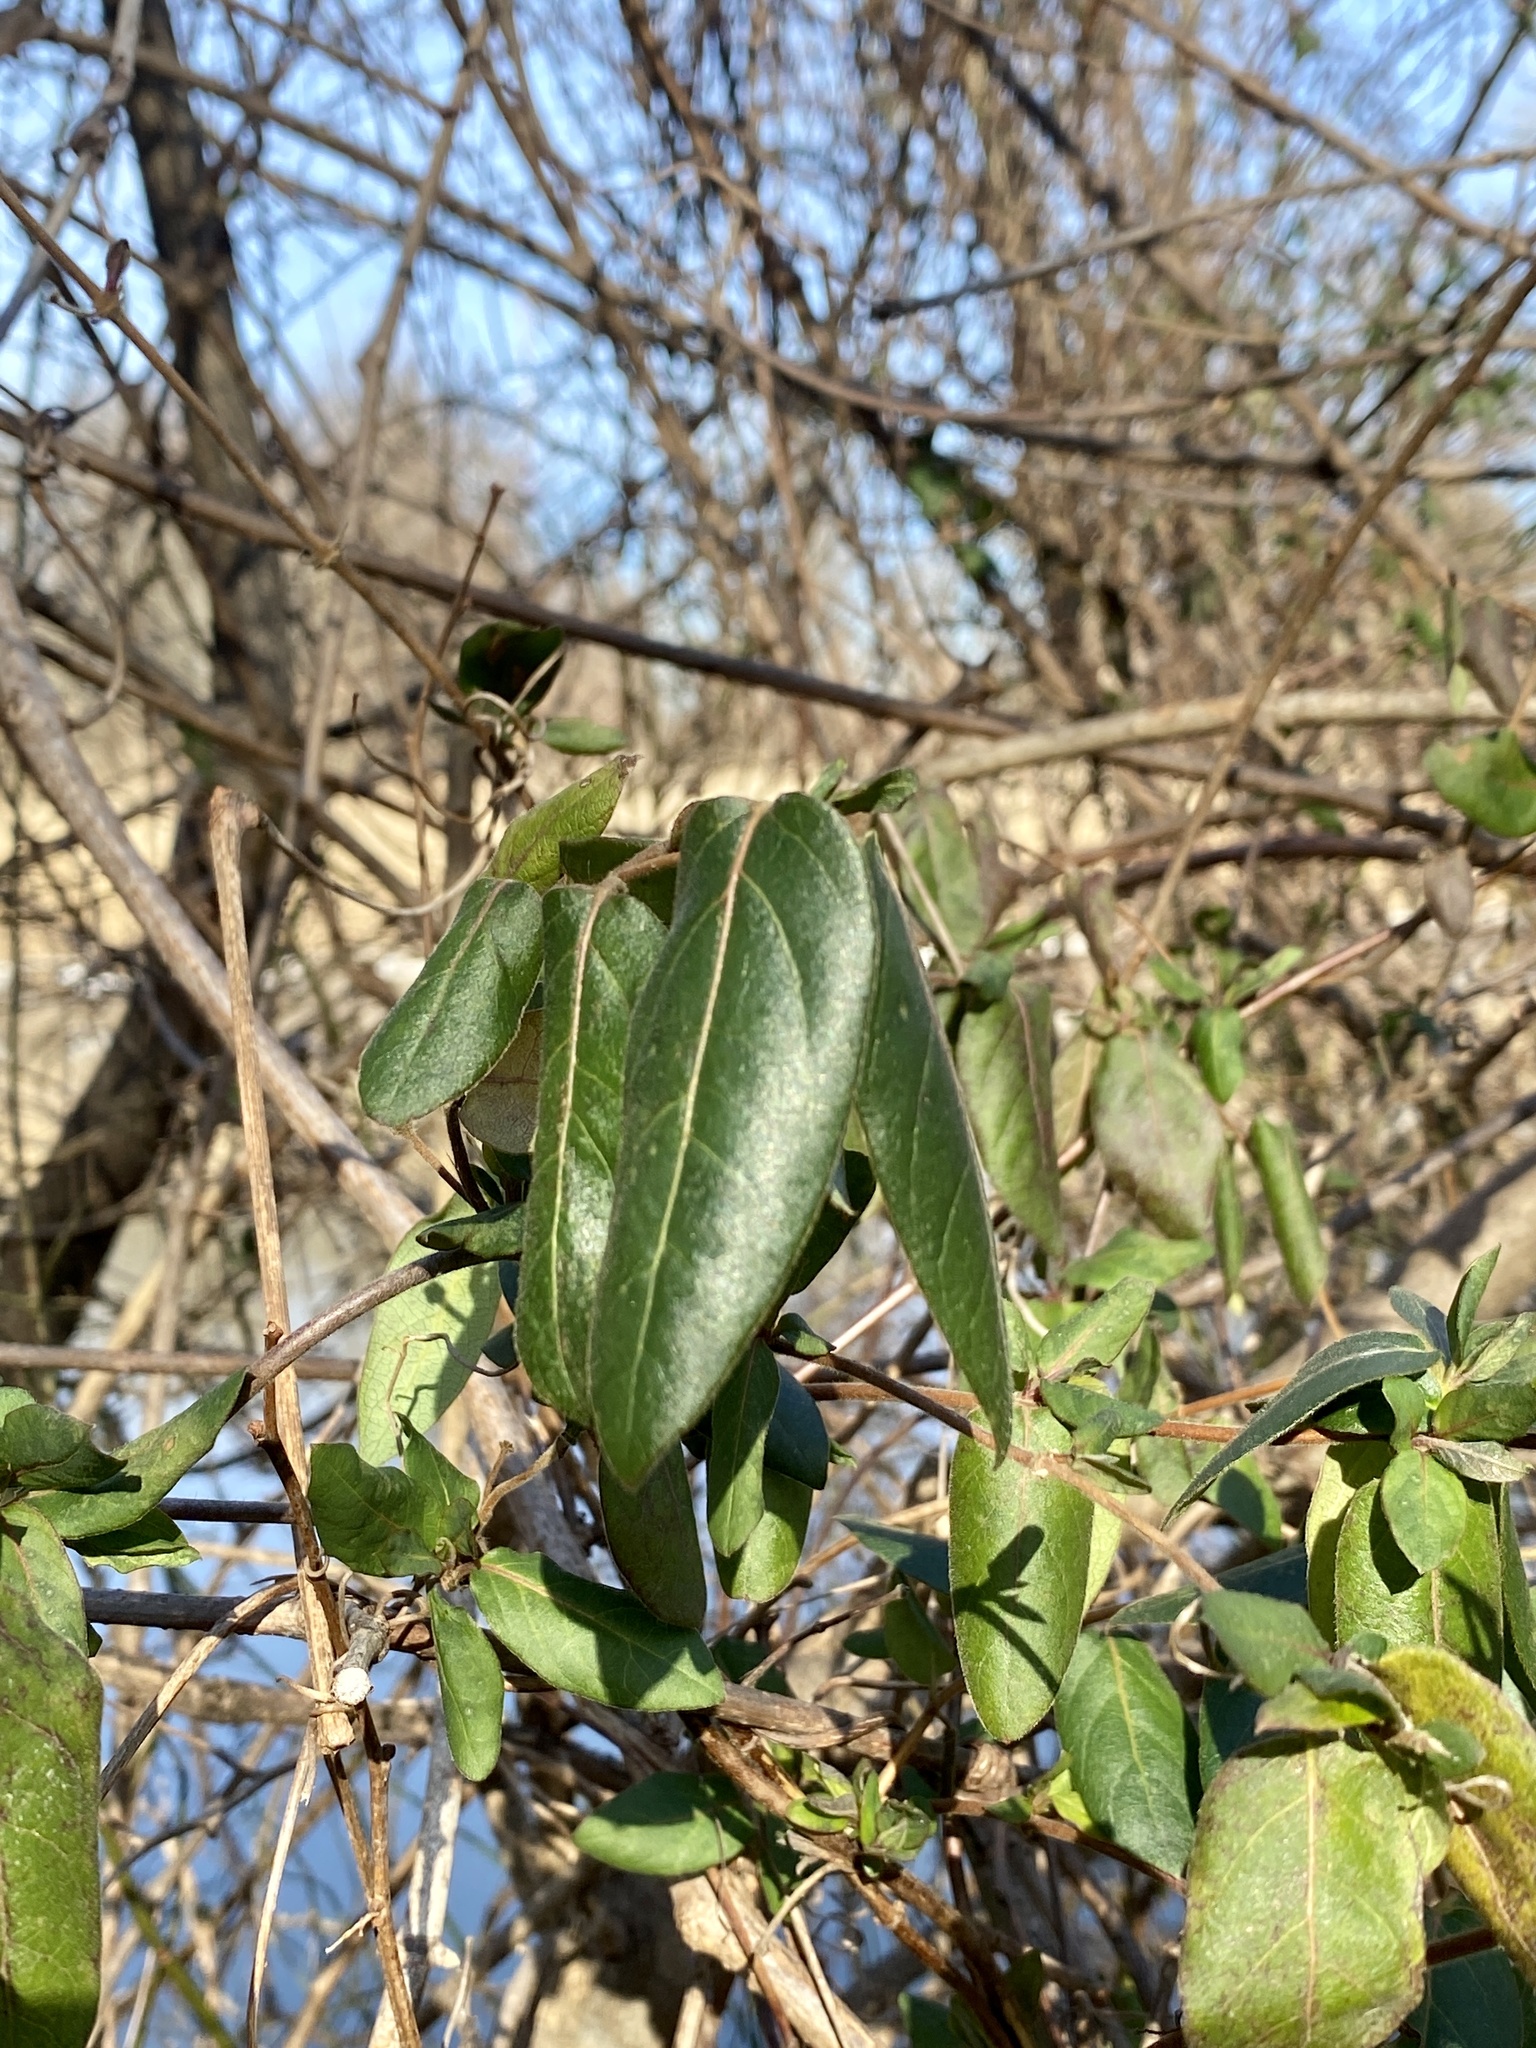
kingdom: Plantae
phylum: Tracheophyta
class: Magnoliopsida
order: Dipsacales
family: Caprifoliaceae
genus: Lonicera
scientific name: Lonicera japonica
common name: Japanese honeysuckle
